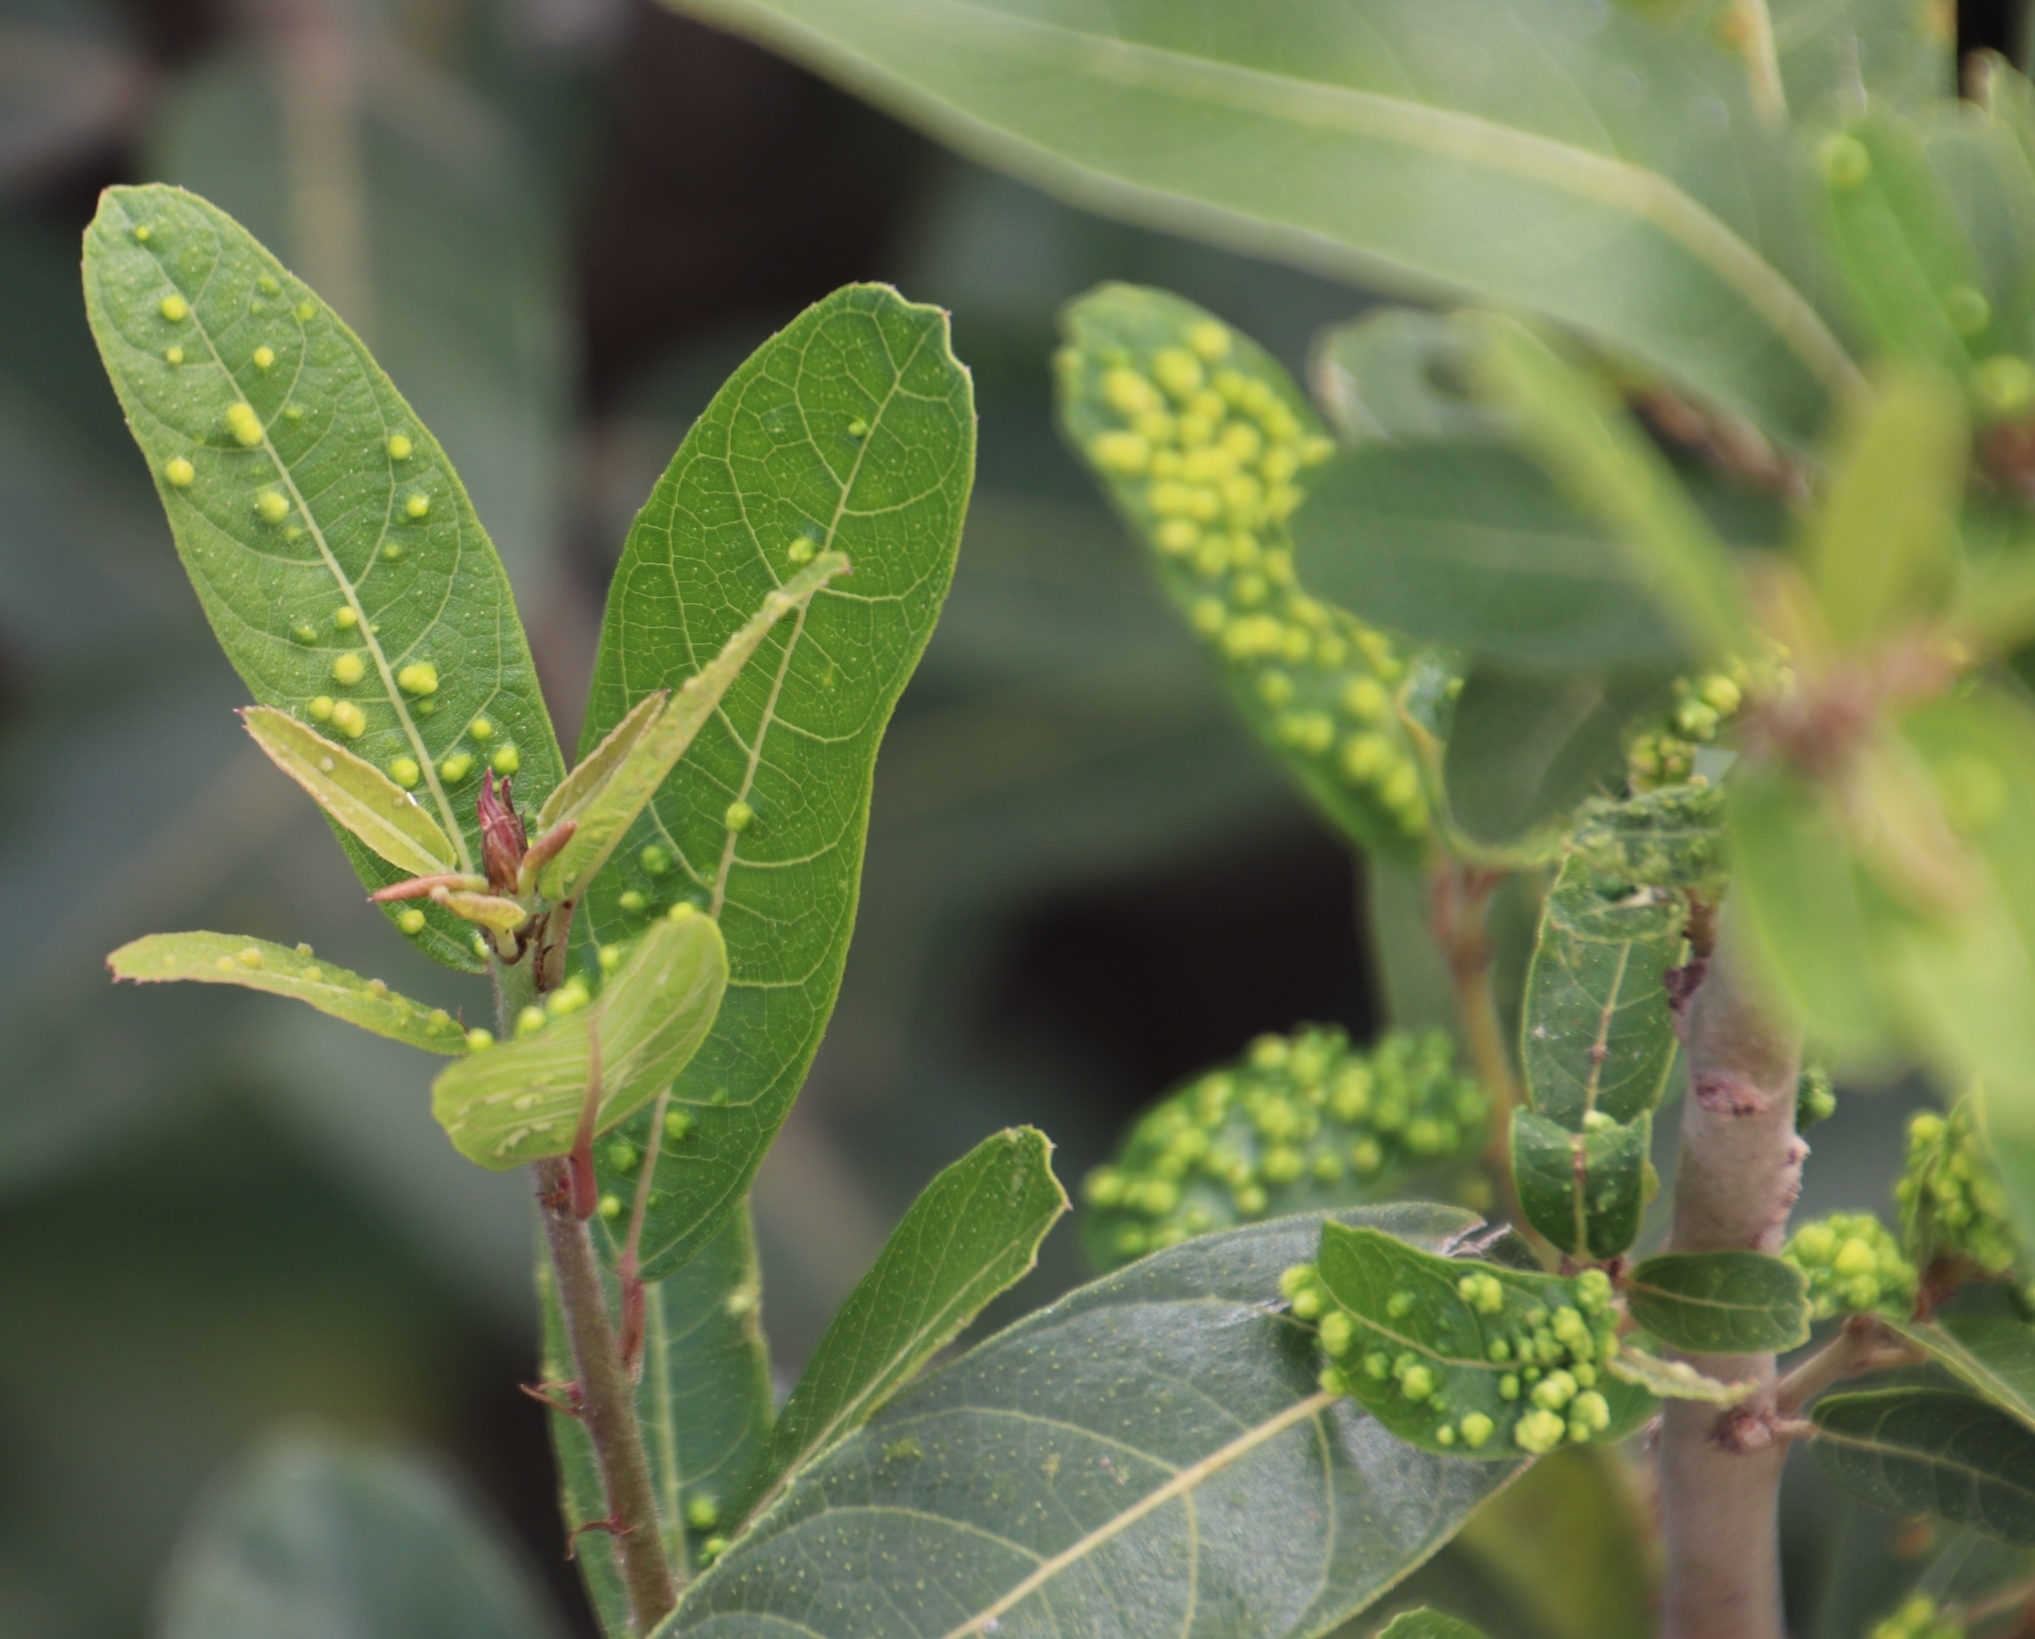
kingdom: Plantae
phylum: Tracheophyta
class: Magnoliopsida
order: Rosales
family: Moraceae
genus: Ficus
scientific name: Ficus capreifolia
